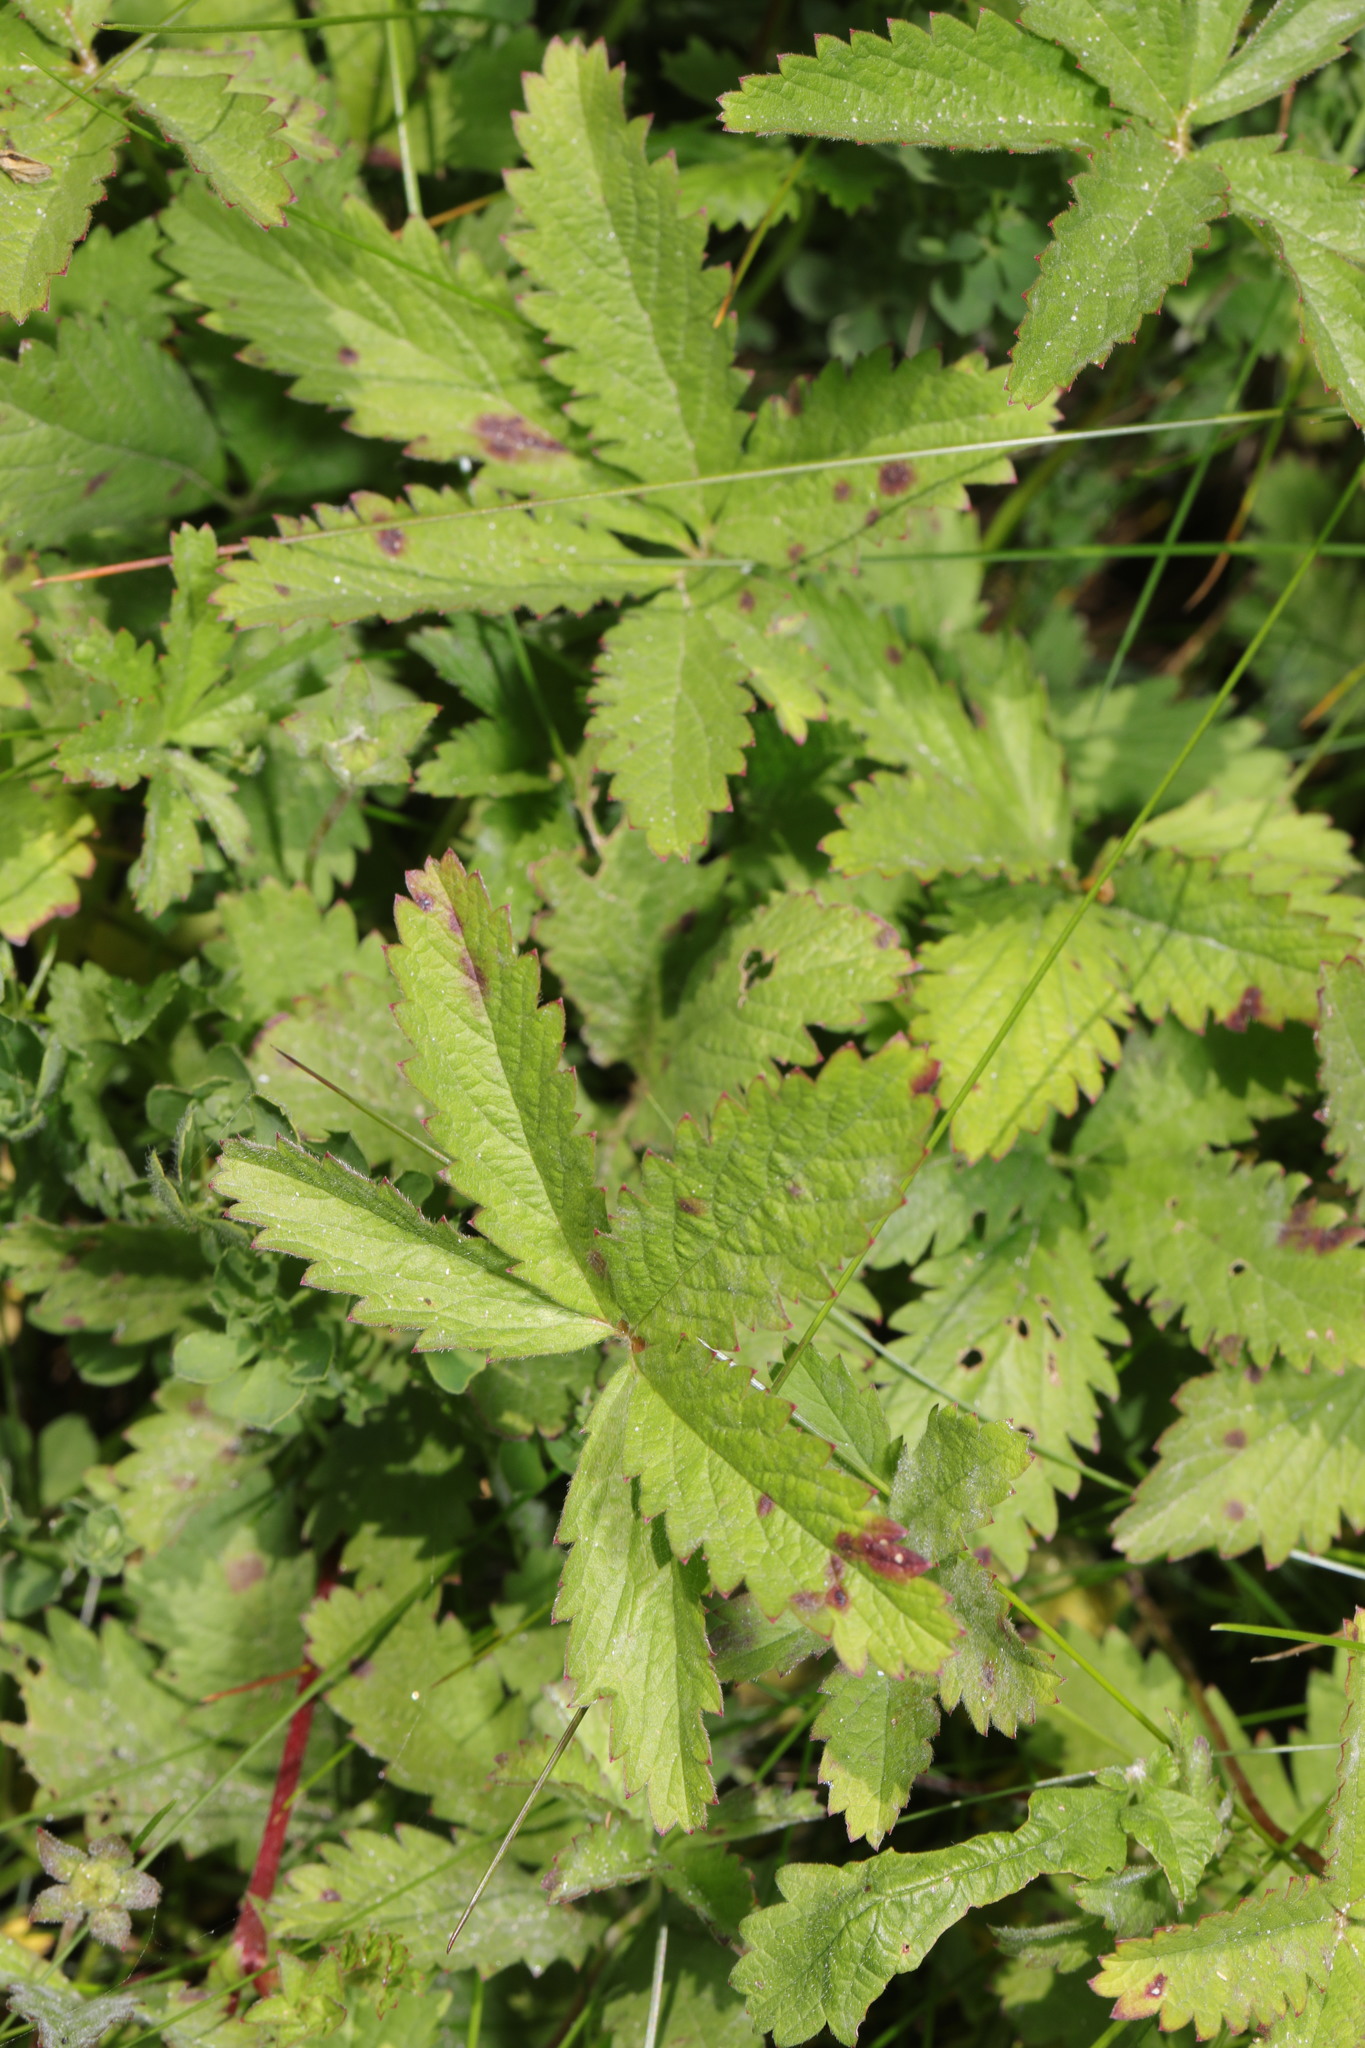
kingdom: Plantae
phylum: Tracheophyta
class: Magnoliopsida
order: Rosales
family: Rosaceae
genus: Potentilla
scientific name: Potentilla reptans
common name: Creeping cinquefoil
